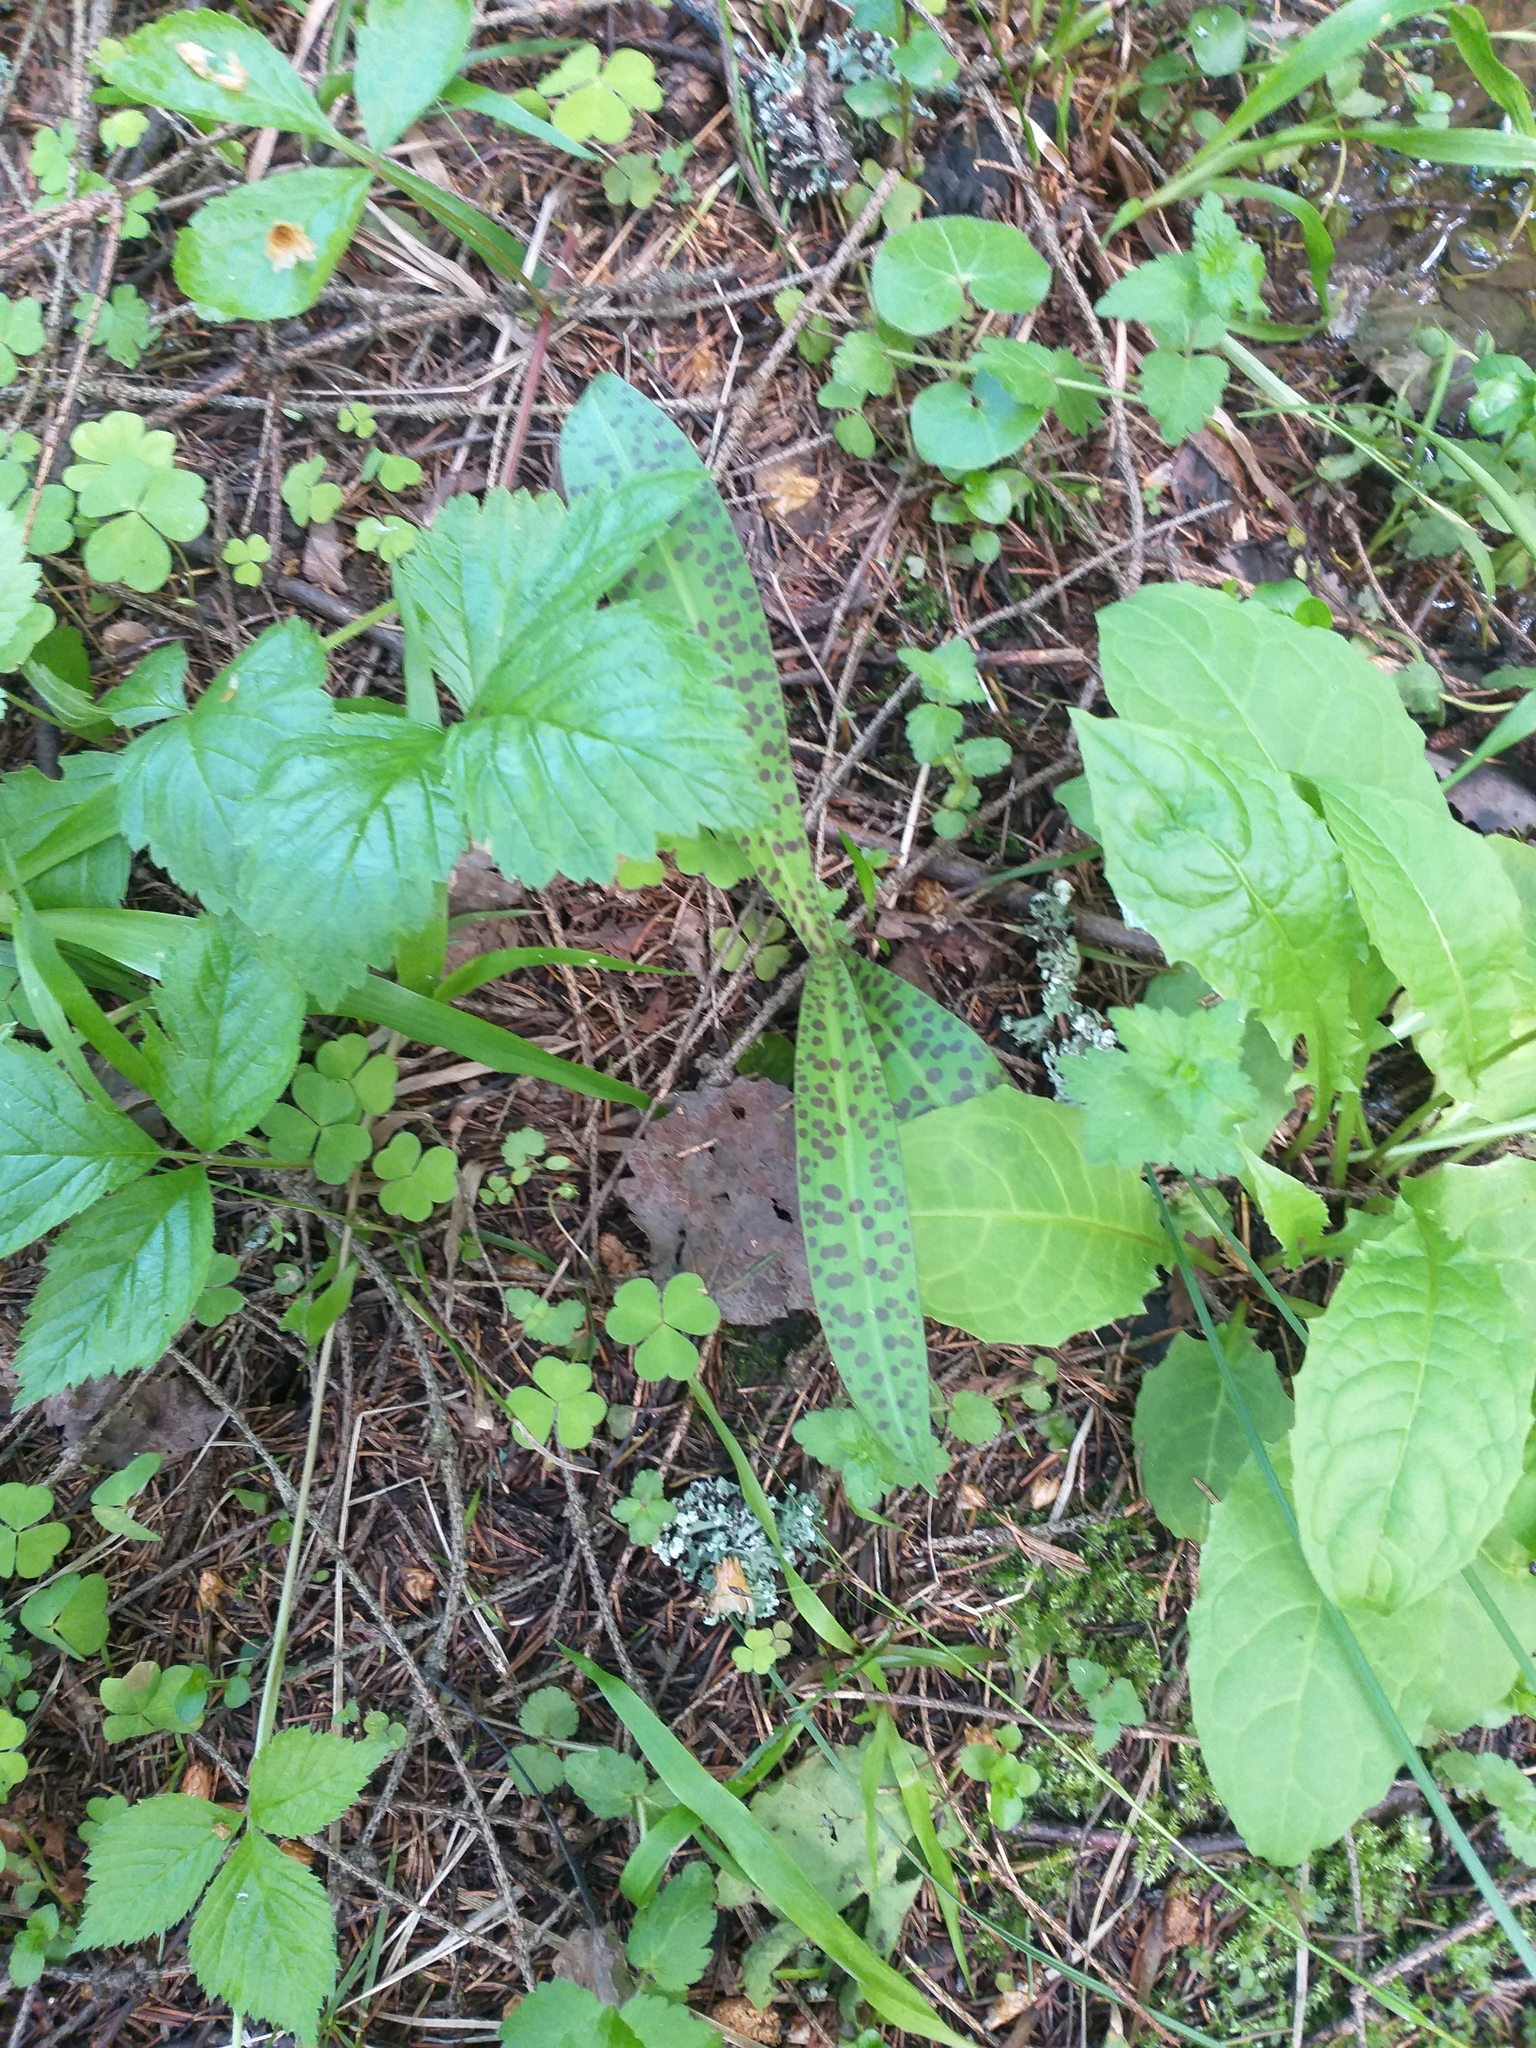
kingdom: Plantae
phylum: Tracheophyta
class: Liliopsida
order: Asparagales
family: Orchidaceae
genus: Dactylorhiza
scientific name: Dactylorhiza maculata
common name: Heath spotted-orchid
